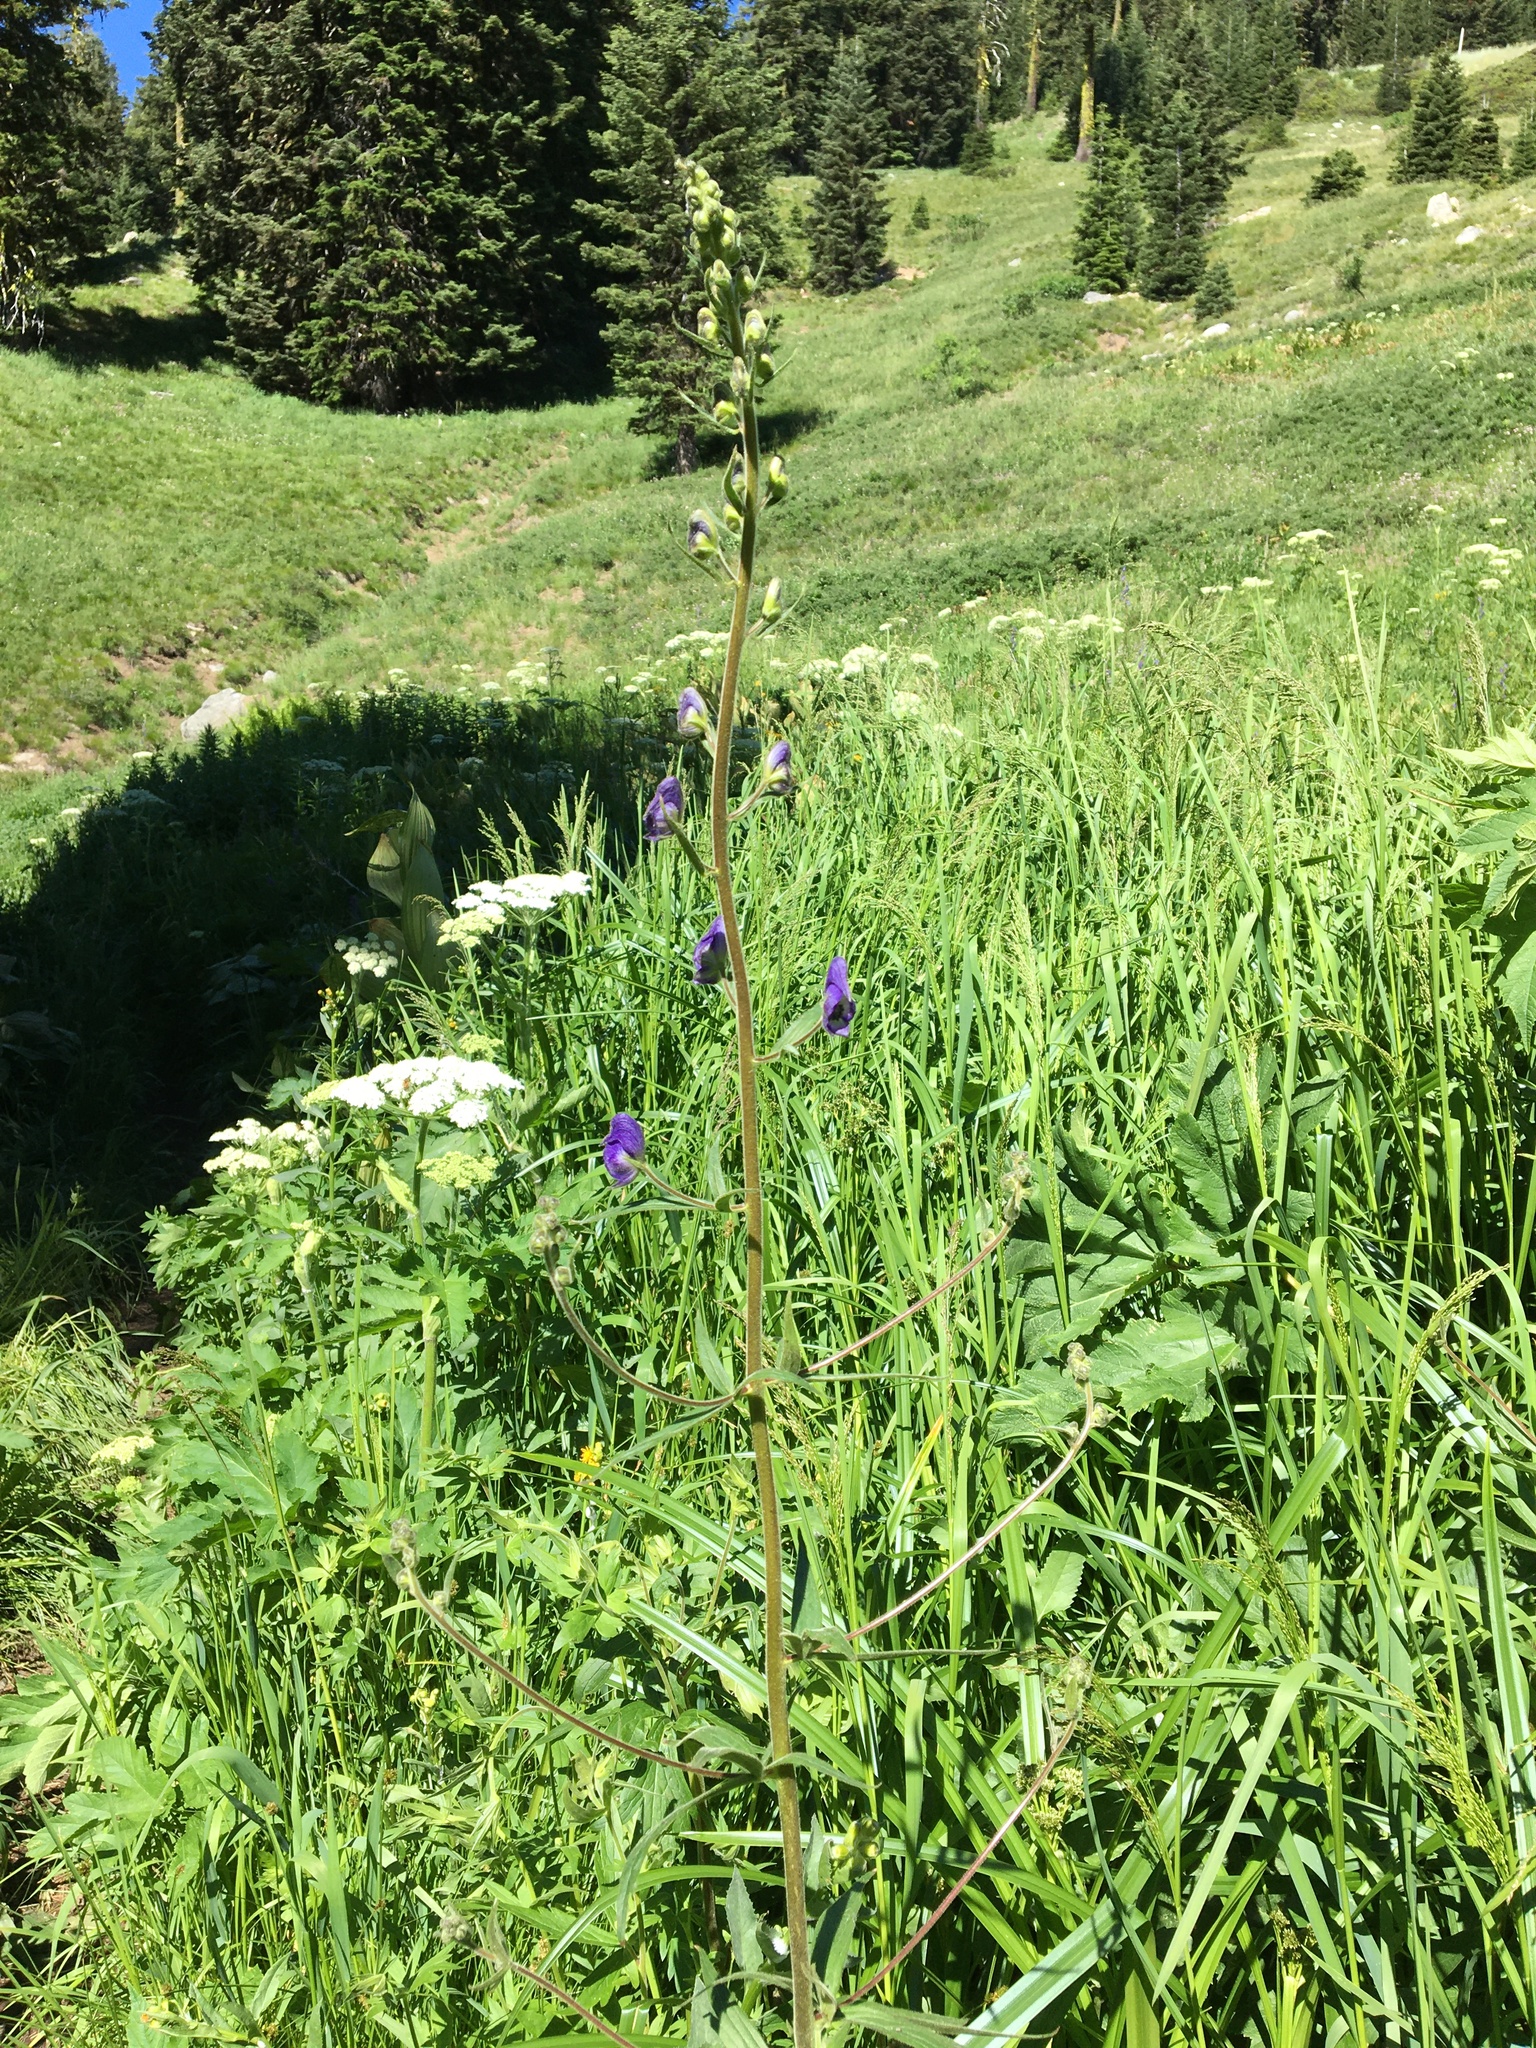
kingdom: Plantae
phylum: Tracheophyta
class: Magnoliopsida
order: Ranunculales
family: Ranunculaceae
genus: Aconitum
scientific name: Aconitum columbianum
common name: Columbia aconite
